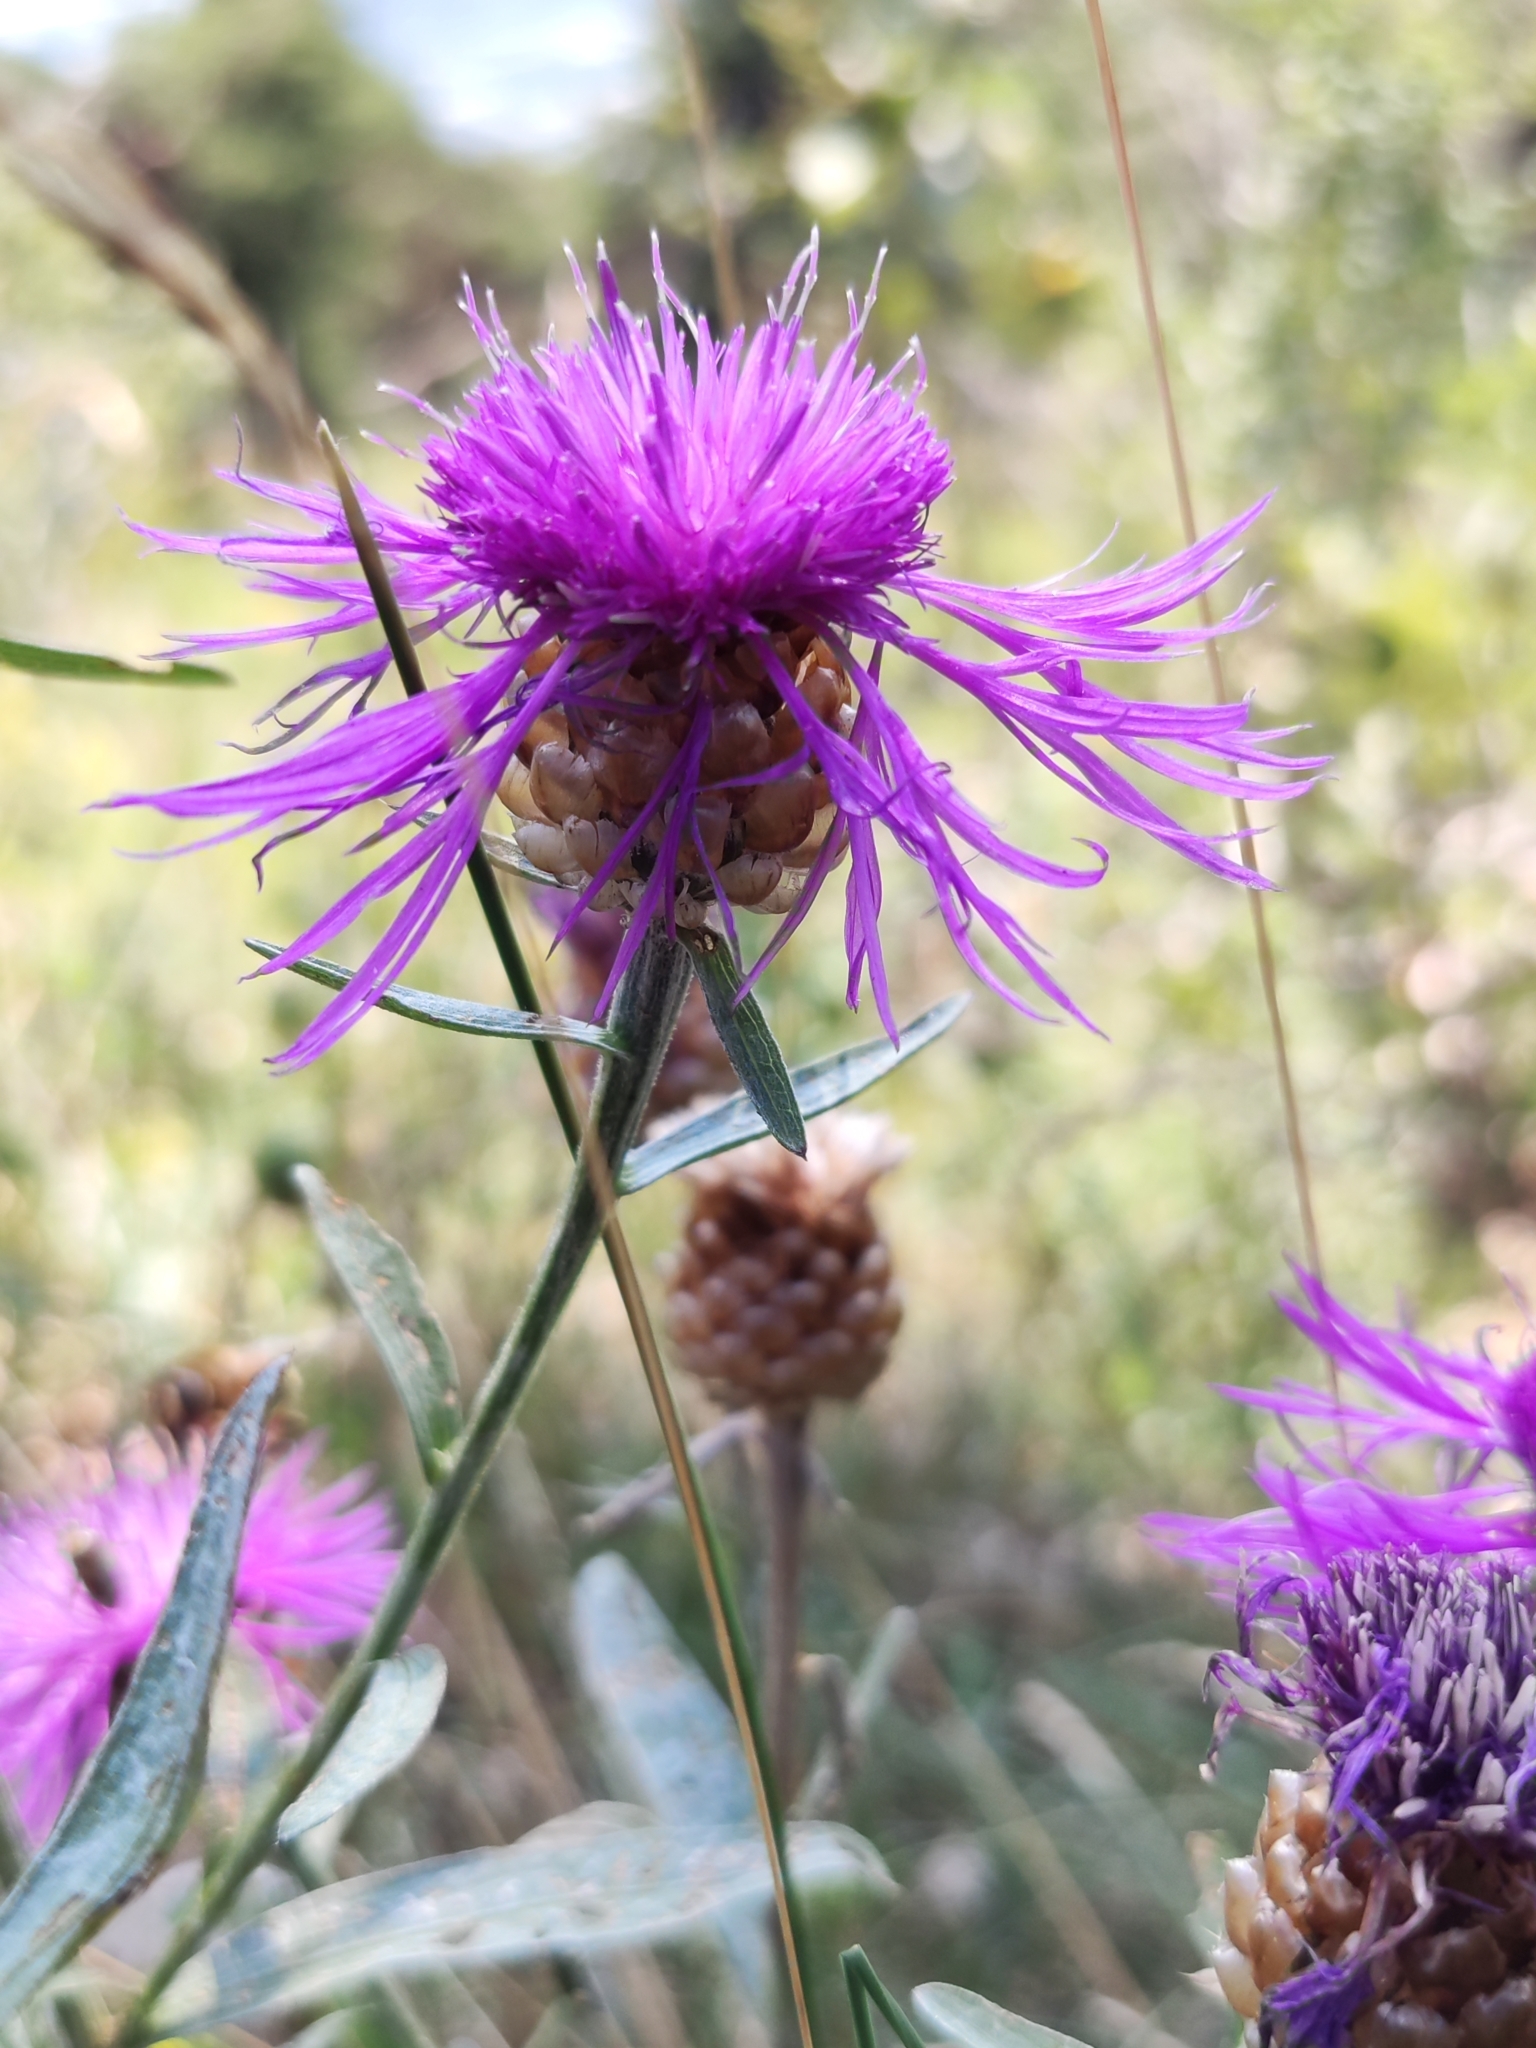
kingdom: Plantae
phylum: Tracheophyta
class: Magnoliopsida
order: Asterales
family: Asteraceae
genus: Centaurea
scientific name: Centaurea jacea
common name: Brown knapweed
